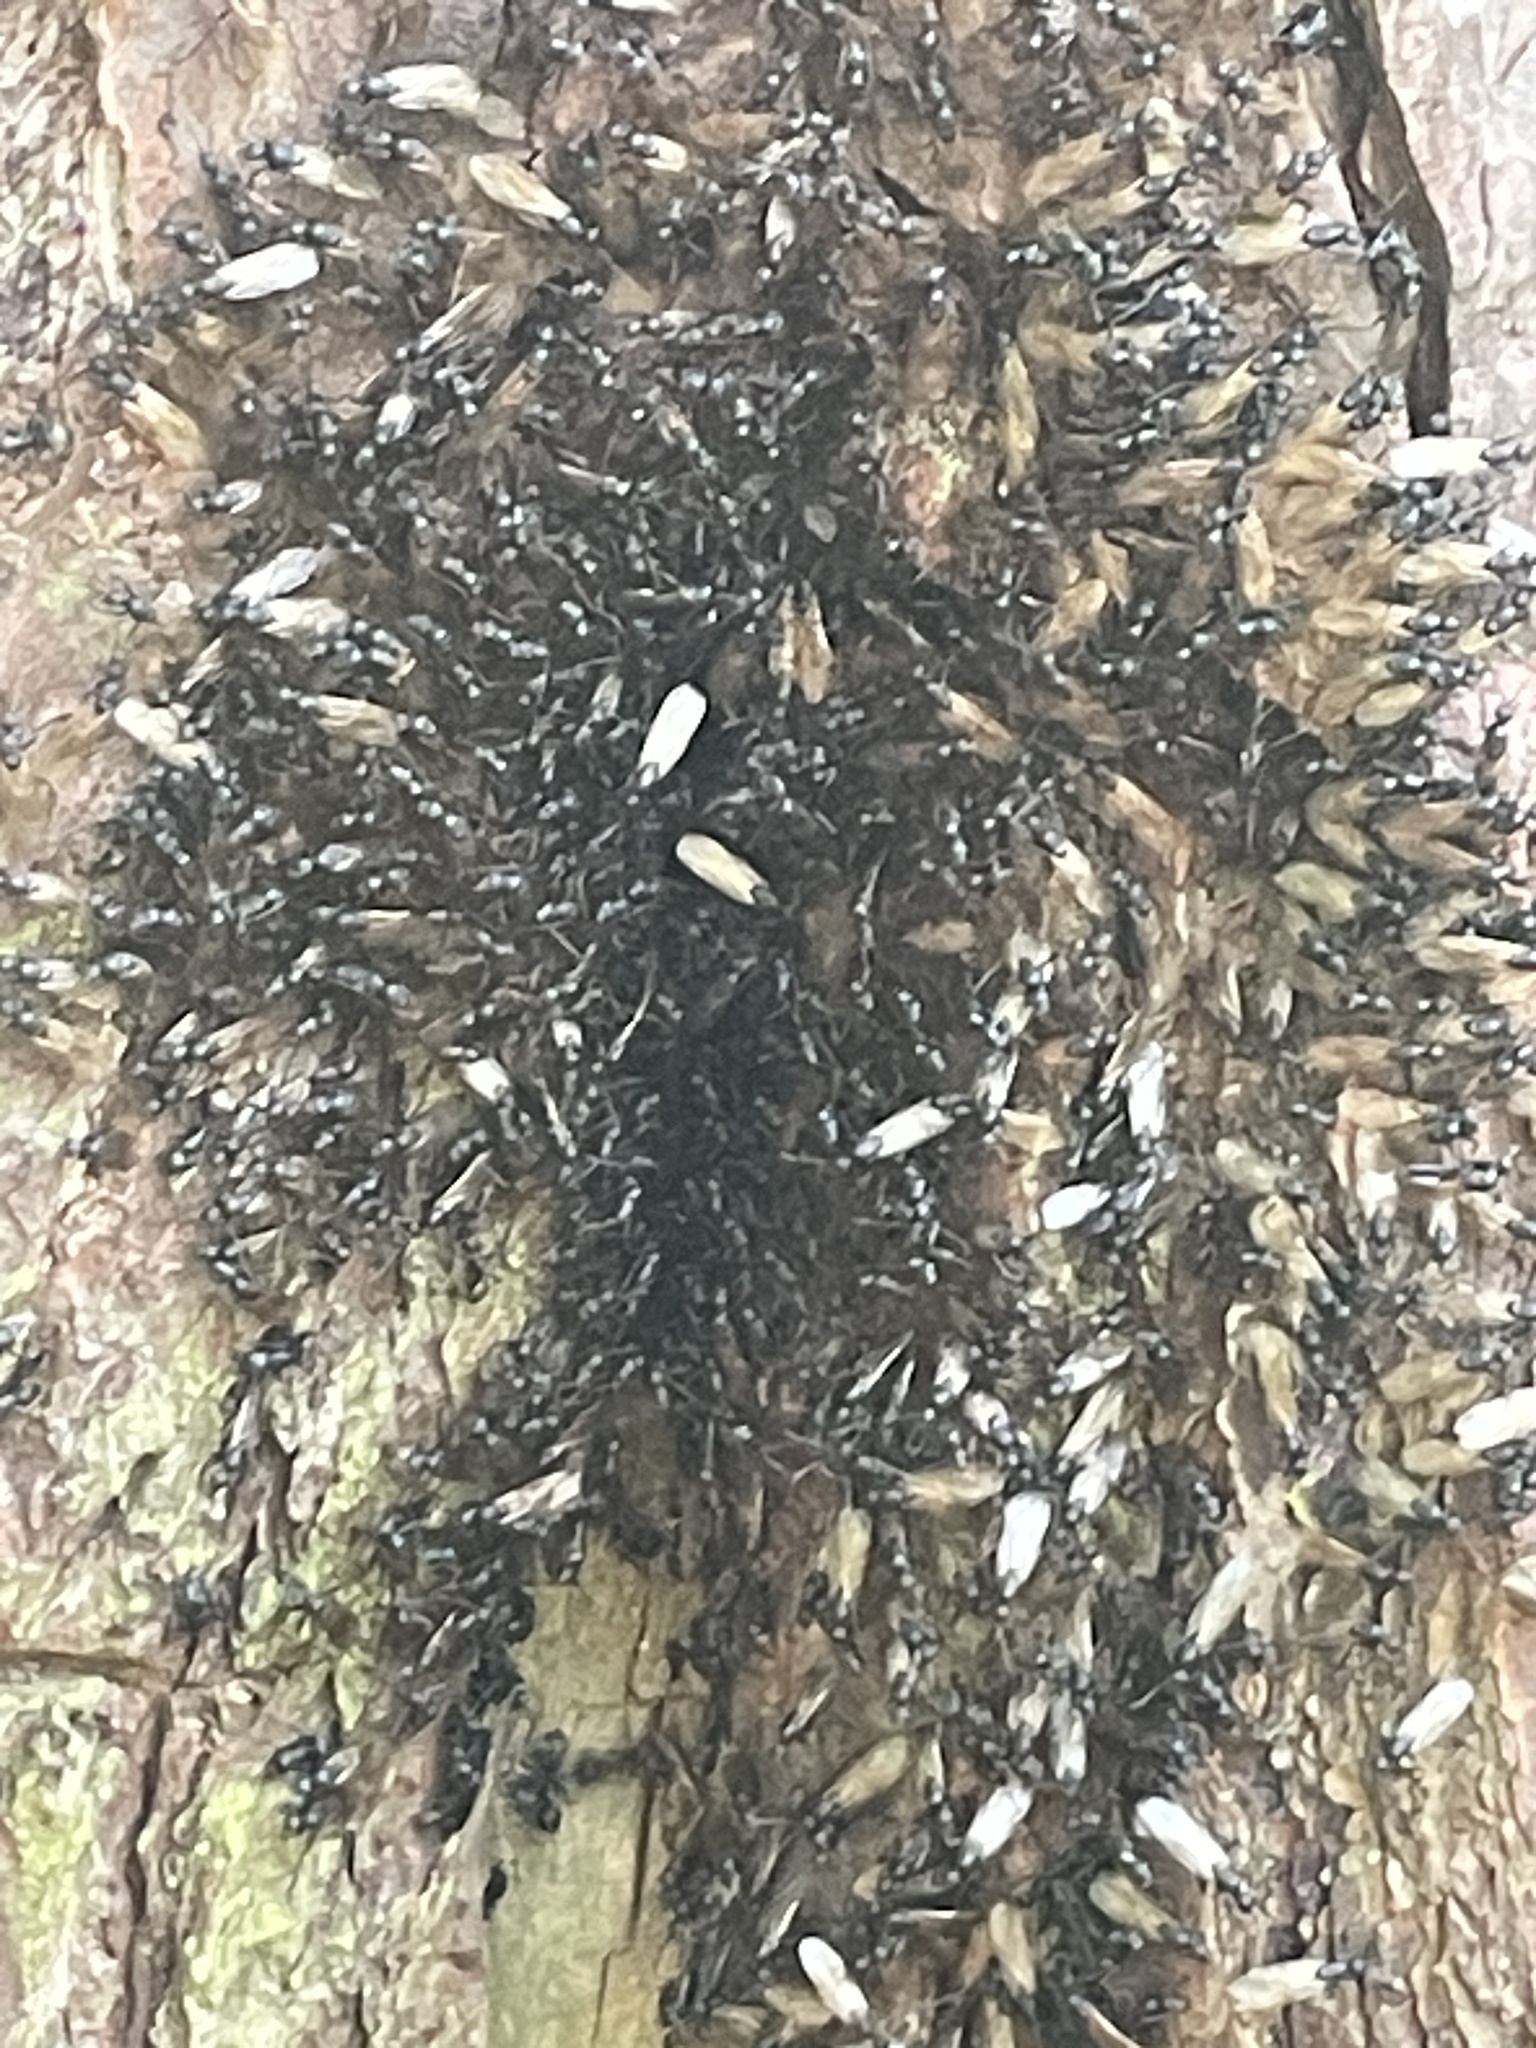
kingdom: Animalia
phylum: Arthropoda
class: Insecta
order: Hymenoptera
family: Formicidae
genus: Camponotus
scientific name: Camponotus pennsylvanicus
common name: Black carpenter ant
